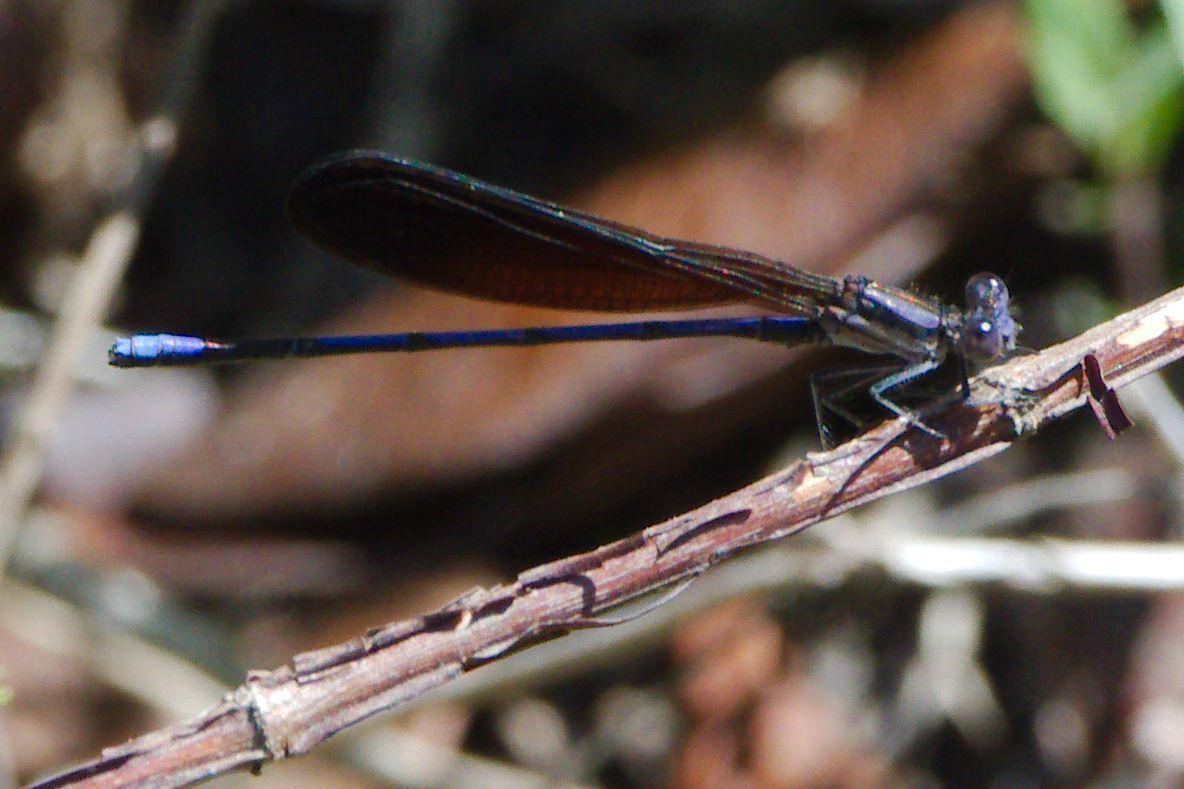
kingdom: Animalia
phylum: Arthropoda
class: Insecta
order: Odonata
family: Coenagrionidae
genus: Argia
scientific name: Argia fumipennis
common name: Variable dancer
